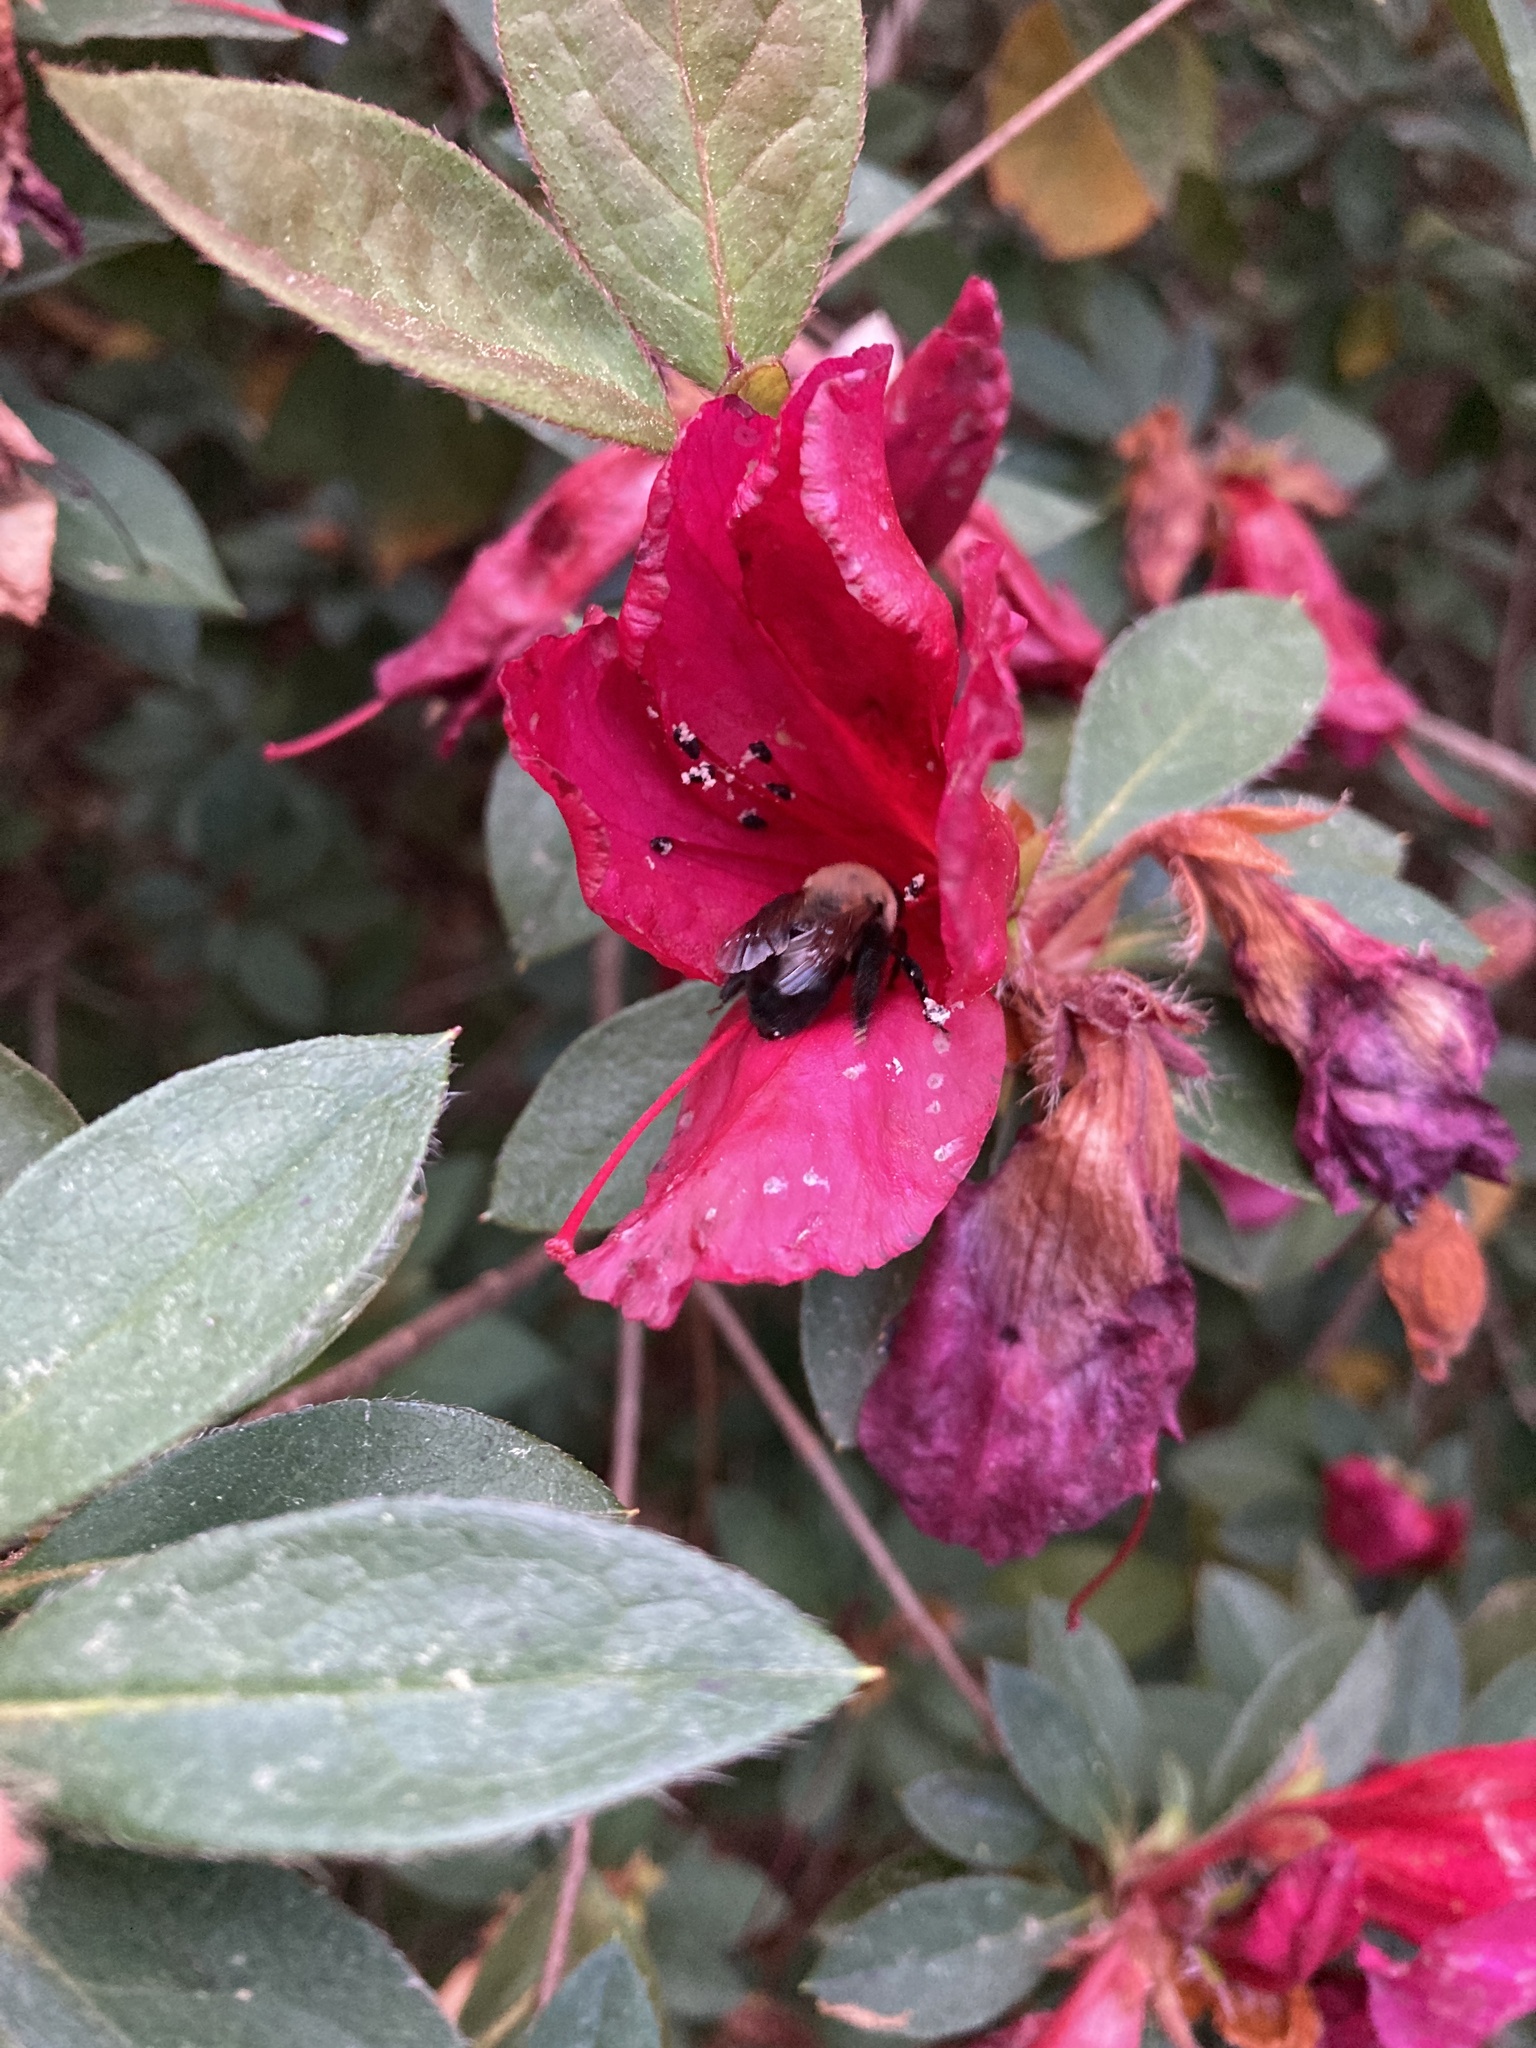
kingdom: Animalia
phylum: Arthropoda
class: Insecta
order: Hymenoptera
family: Apidae
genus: Habropoda
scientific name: Habropoda laboriosa
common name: Southeastern blueberry bee
